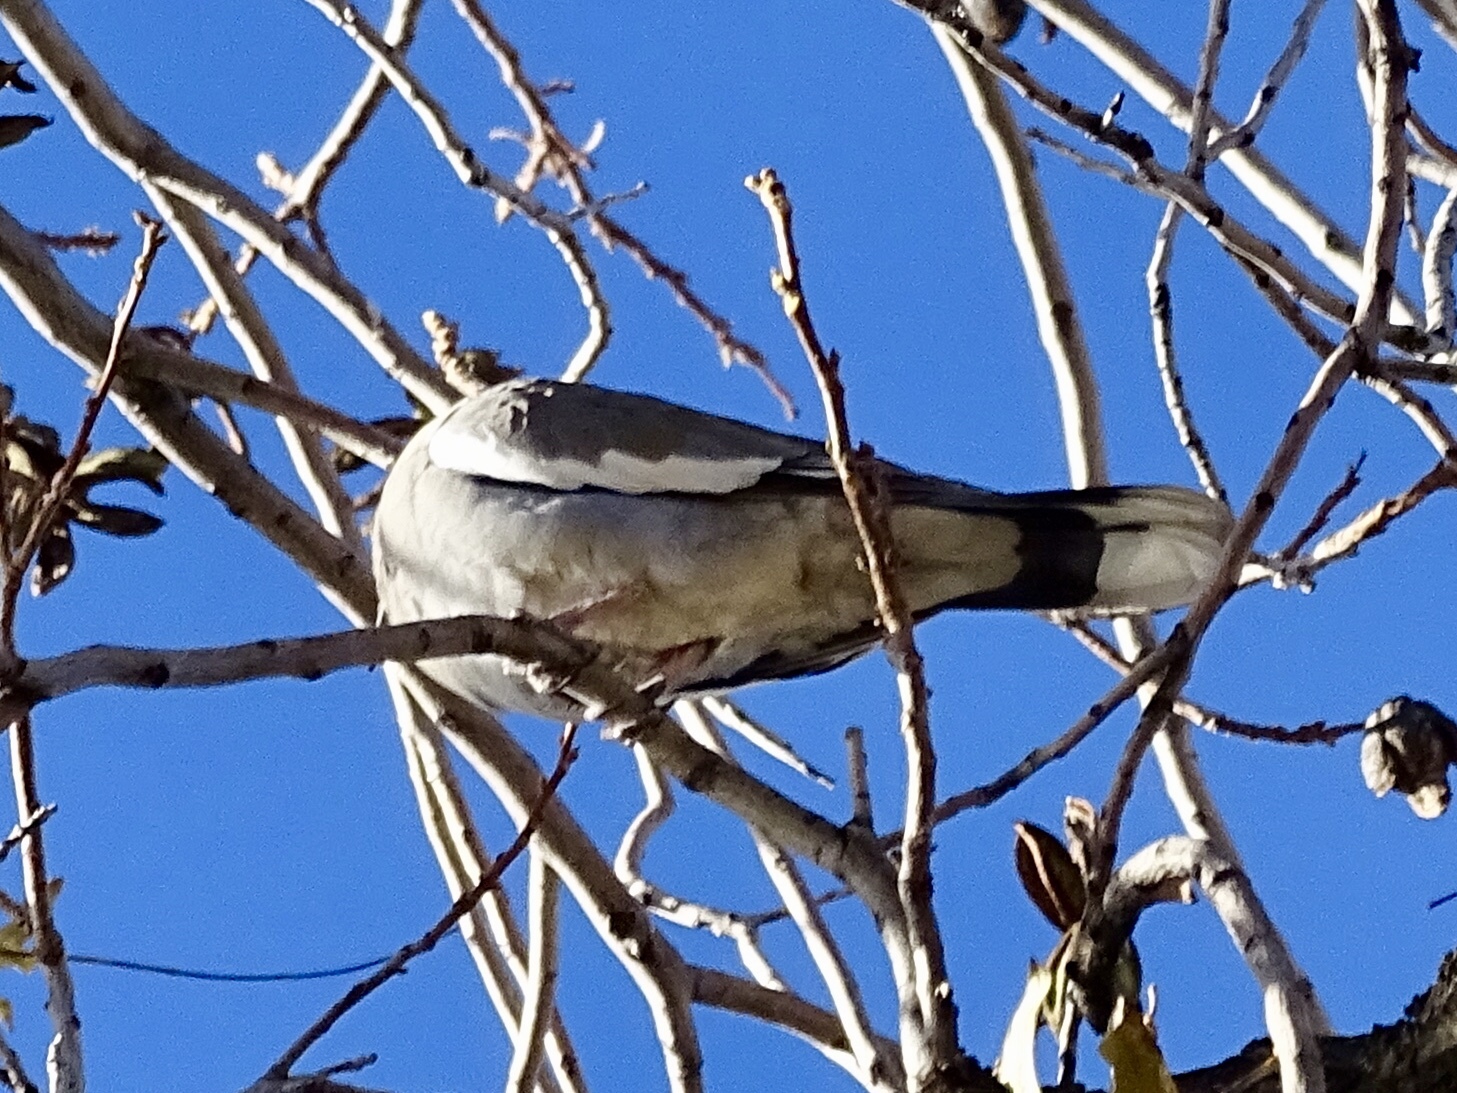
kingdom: Animalia
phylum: Chordata
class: Aves
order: Columbiformes
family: Columbidae
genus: Zenaida
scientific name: Zenaida asiatica
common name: White-winged dove
